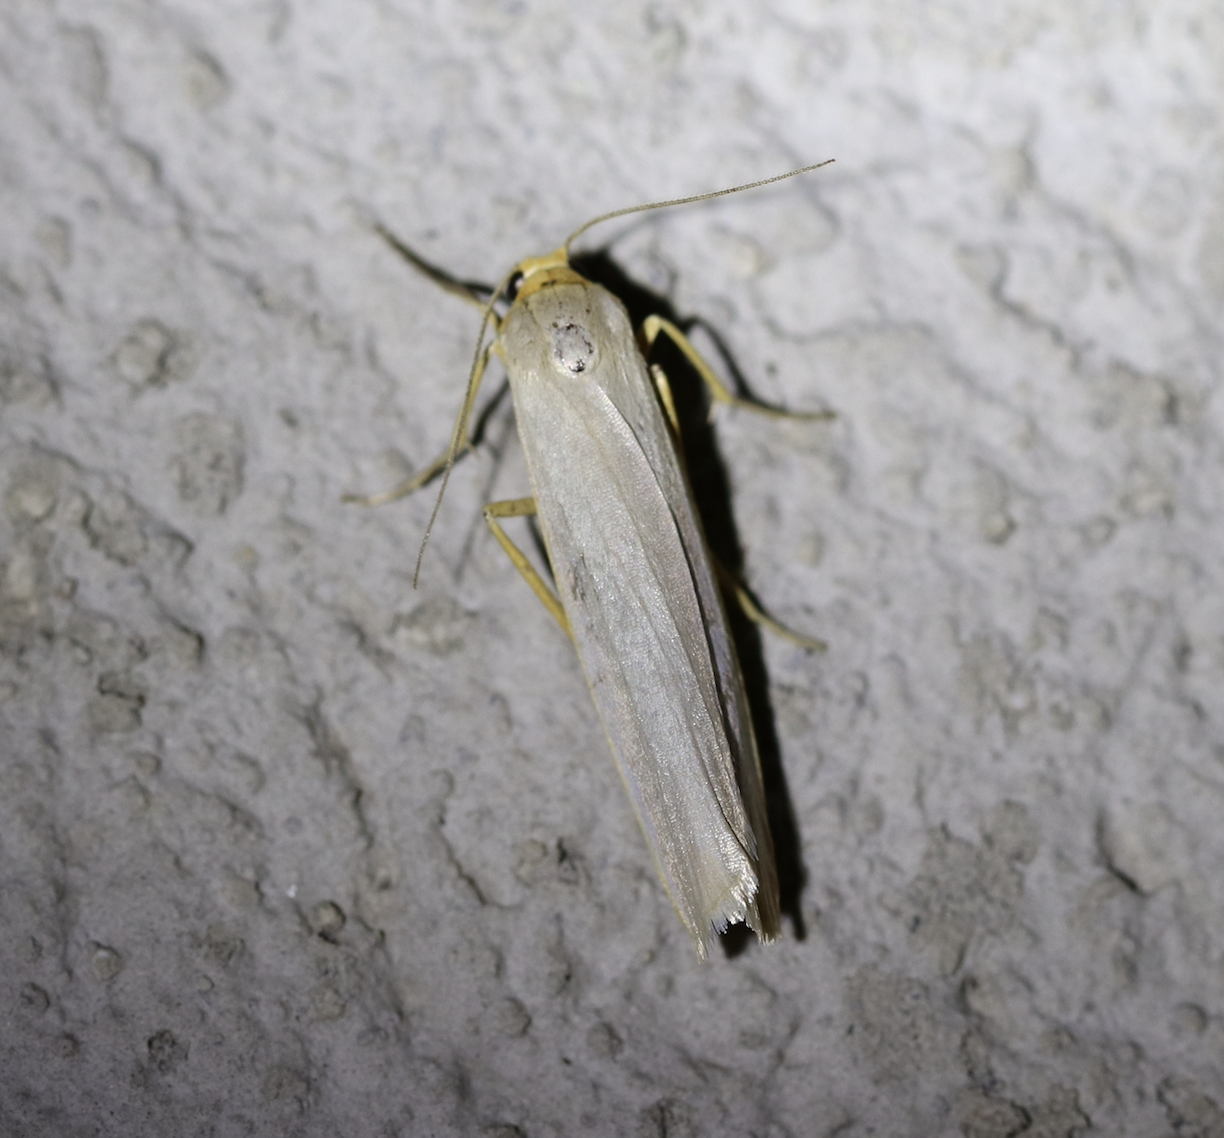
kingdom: Animalia
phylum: Arthropoda
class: Insecta
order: Lepidoptera
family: Erebidae
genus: Eilema
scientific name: Eilema caniola
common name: Hoary footman
